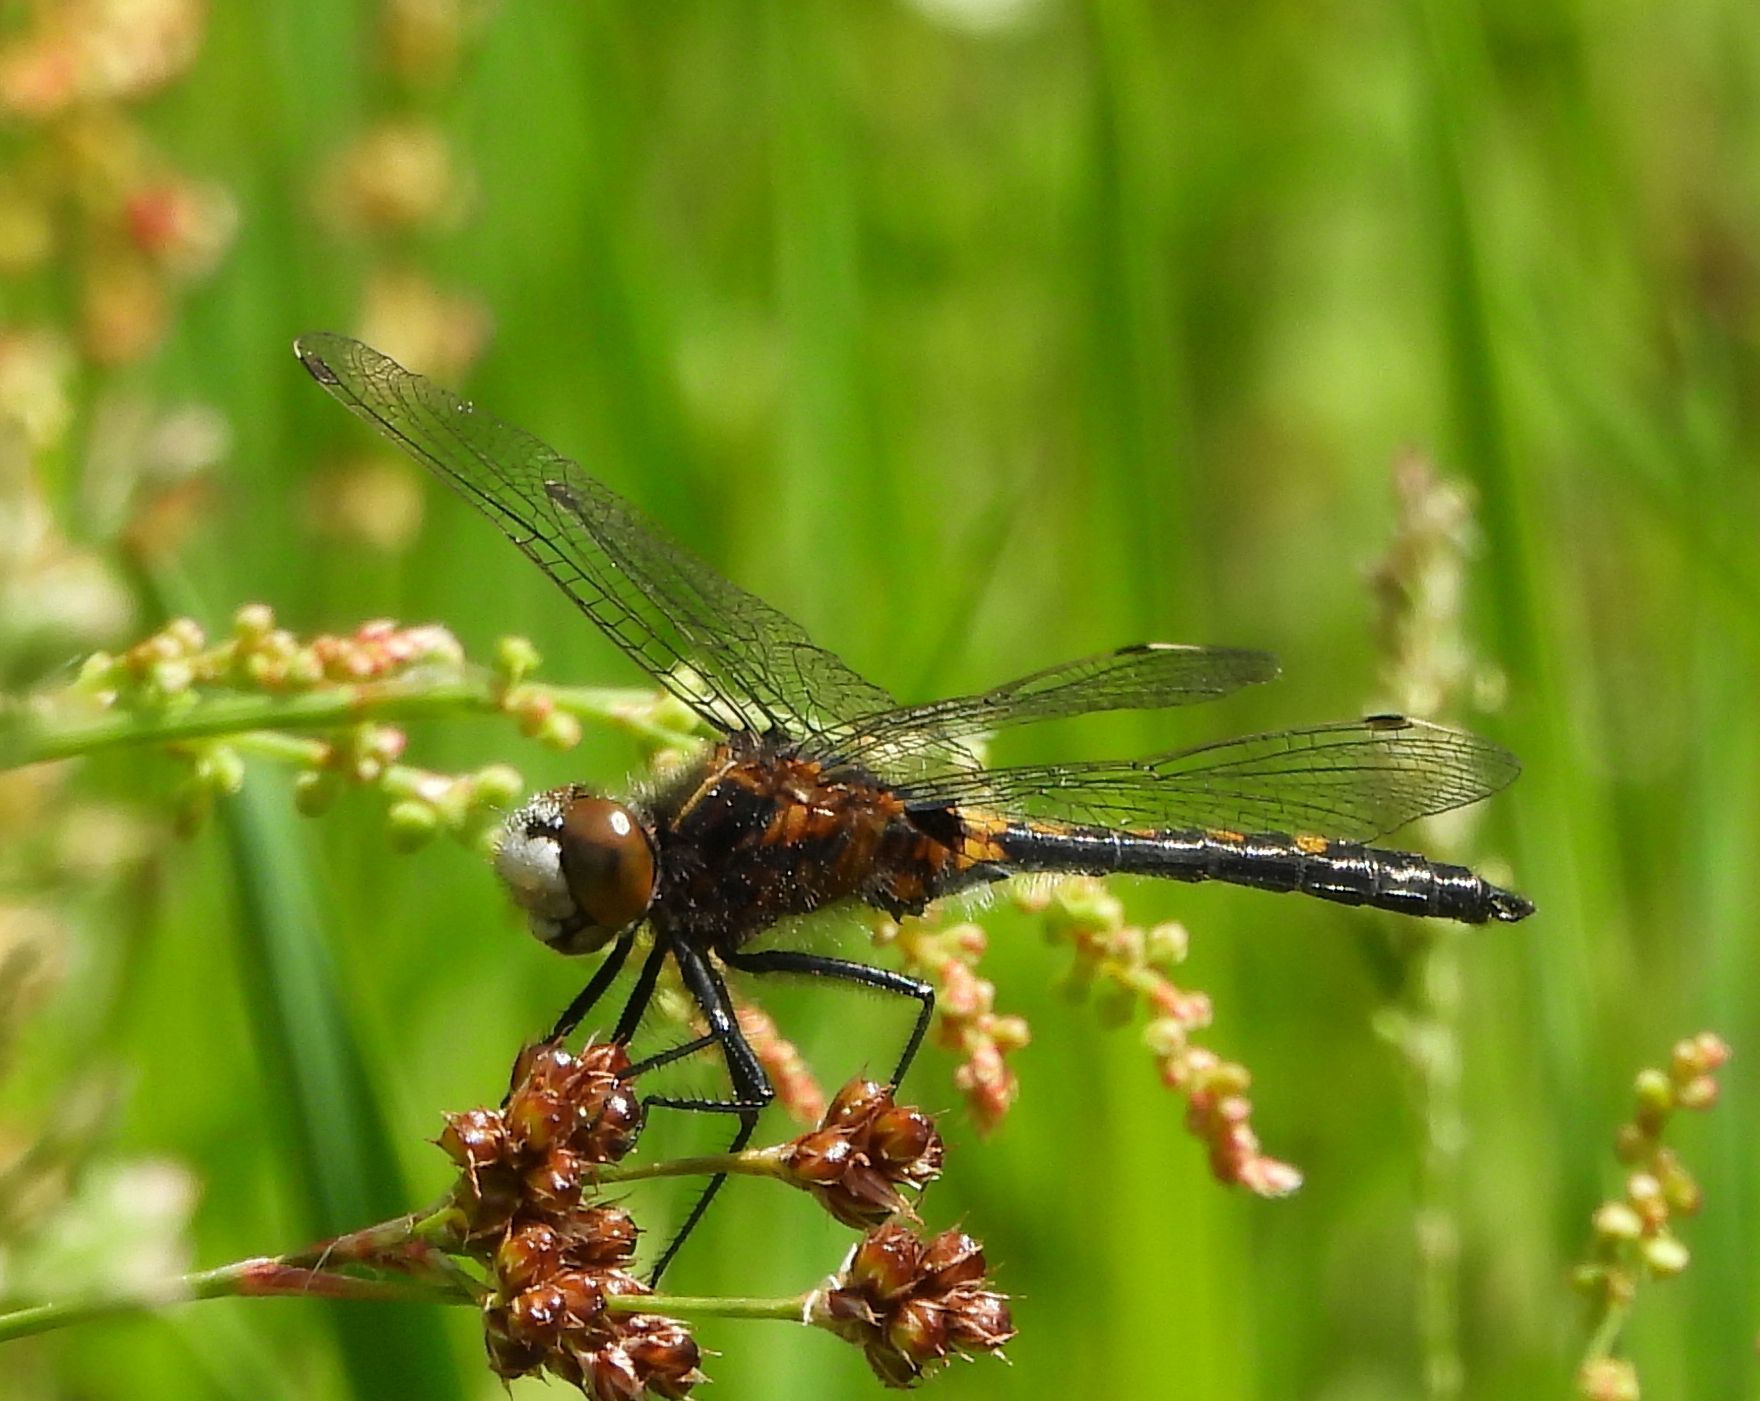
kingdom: Animalia
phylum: Arthropoda
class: Insecta
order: Odonata
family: Libellulidae
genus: Leucorrhinia
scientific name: Leucorrhinia intacta
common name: Dot-tailed whiteface
